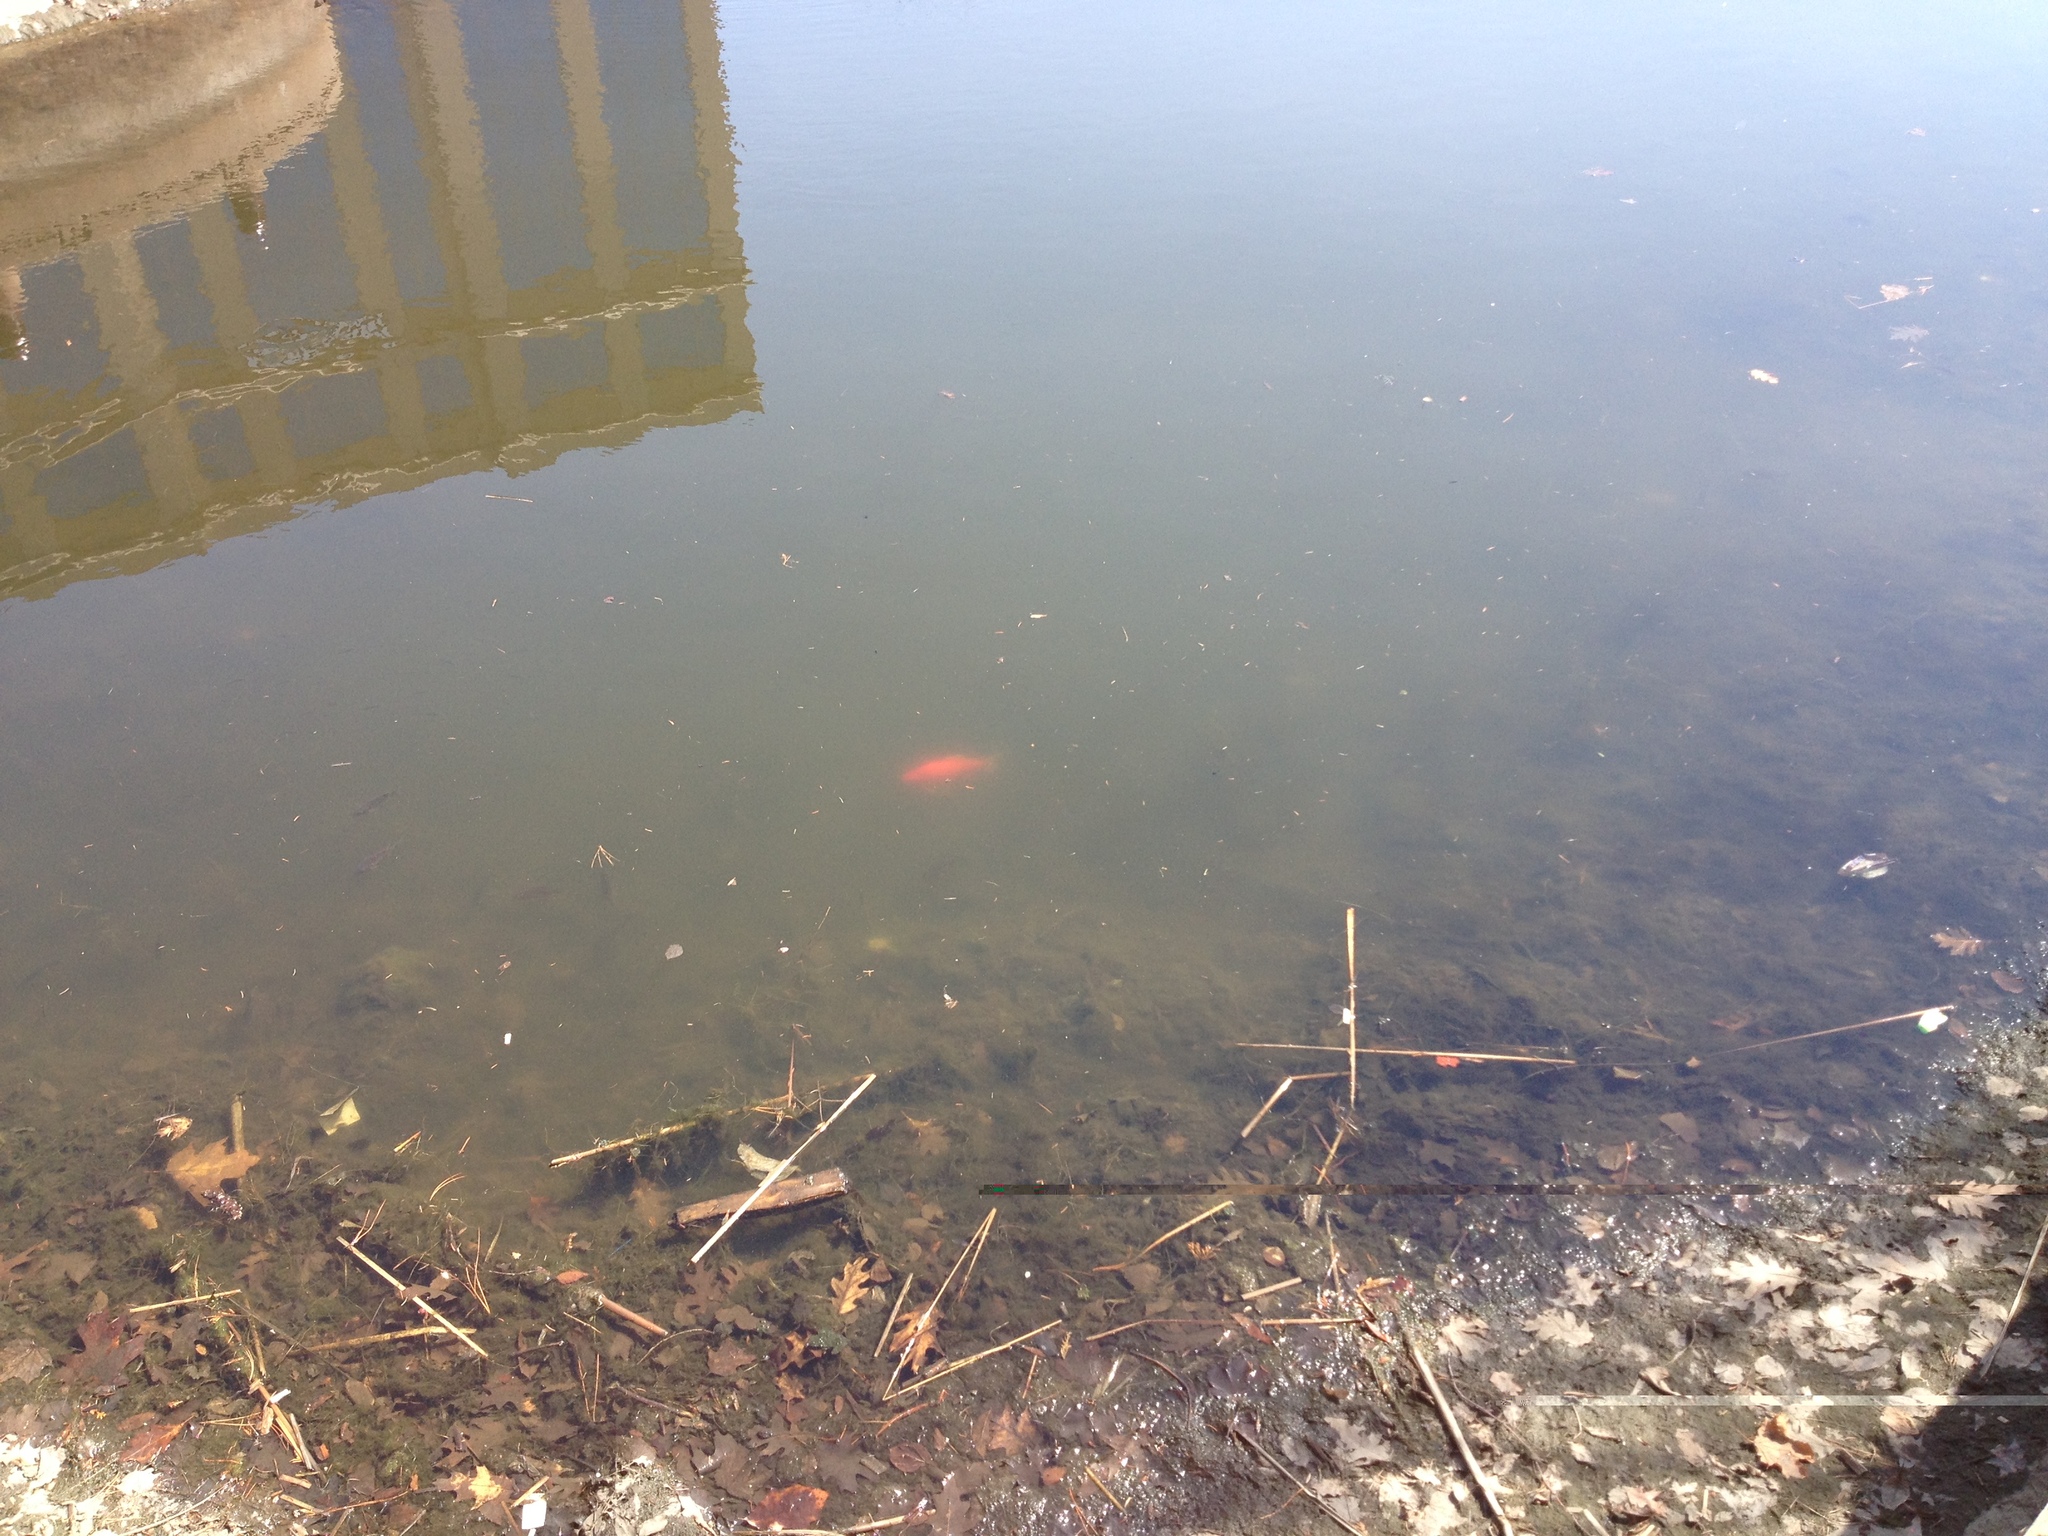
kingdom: Animalia
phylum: Chordata
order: Cypriniformes
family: Cyprinidae
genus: Carassius
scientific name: Carassius auratus
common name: Goldfish
